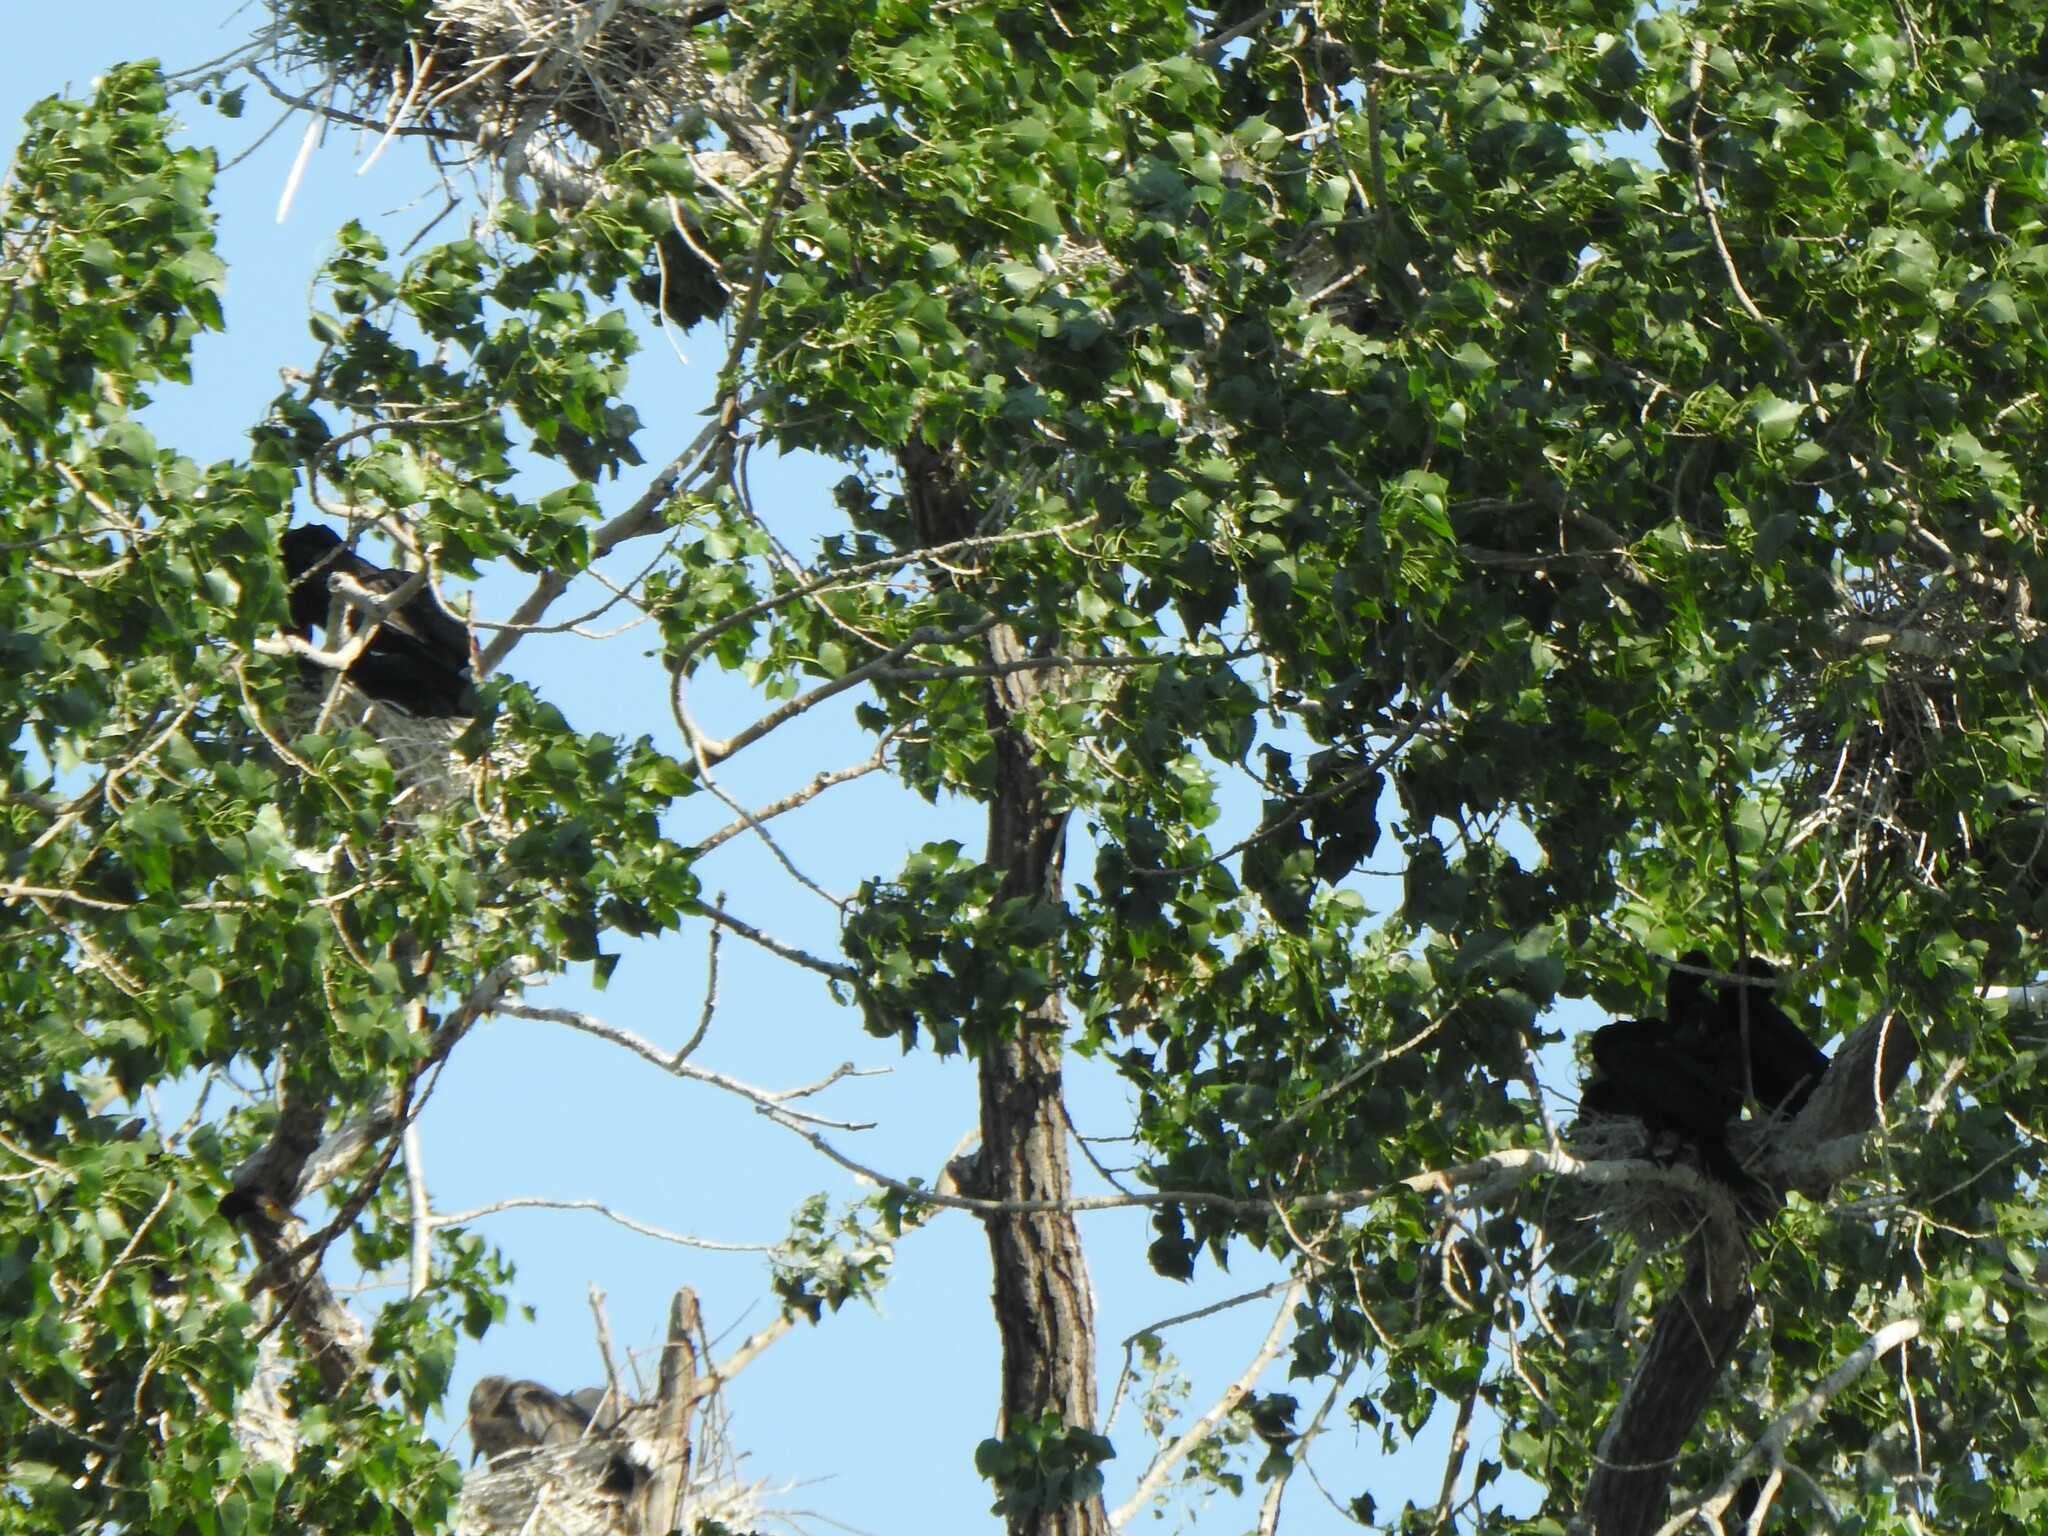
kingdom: Animalia
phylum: Chordata
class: Aves
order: Suliformes
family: Phalacrocoracidae
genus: Phalacrocorax
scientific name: Phalacrocorax auritus
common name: Double-crested cormorant
